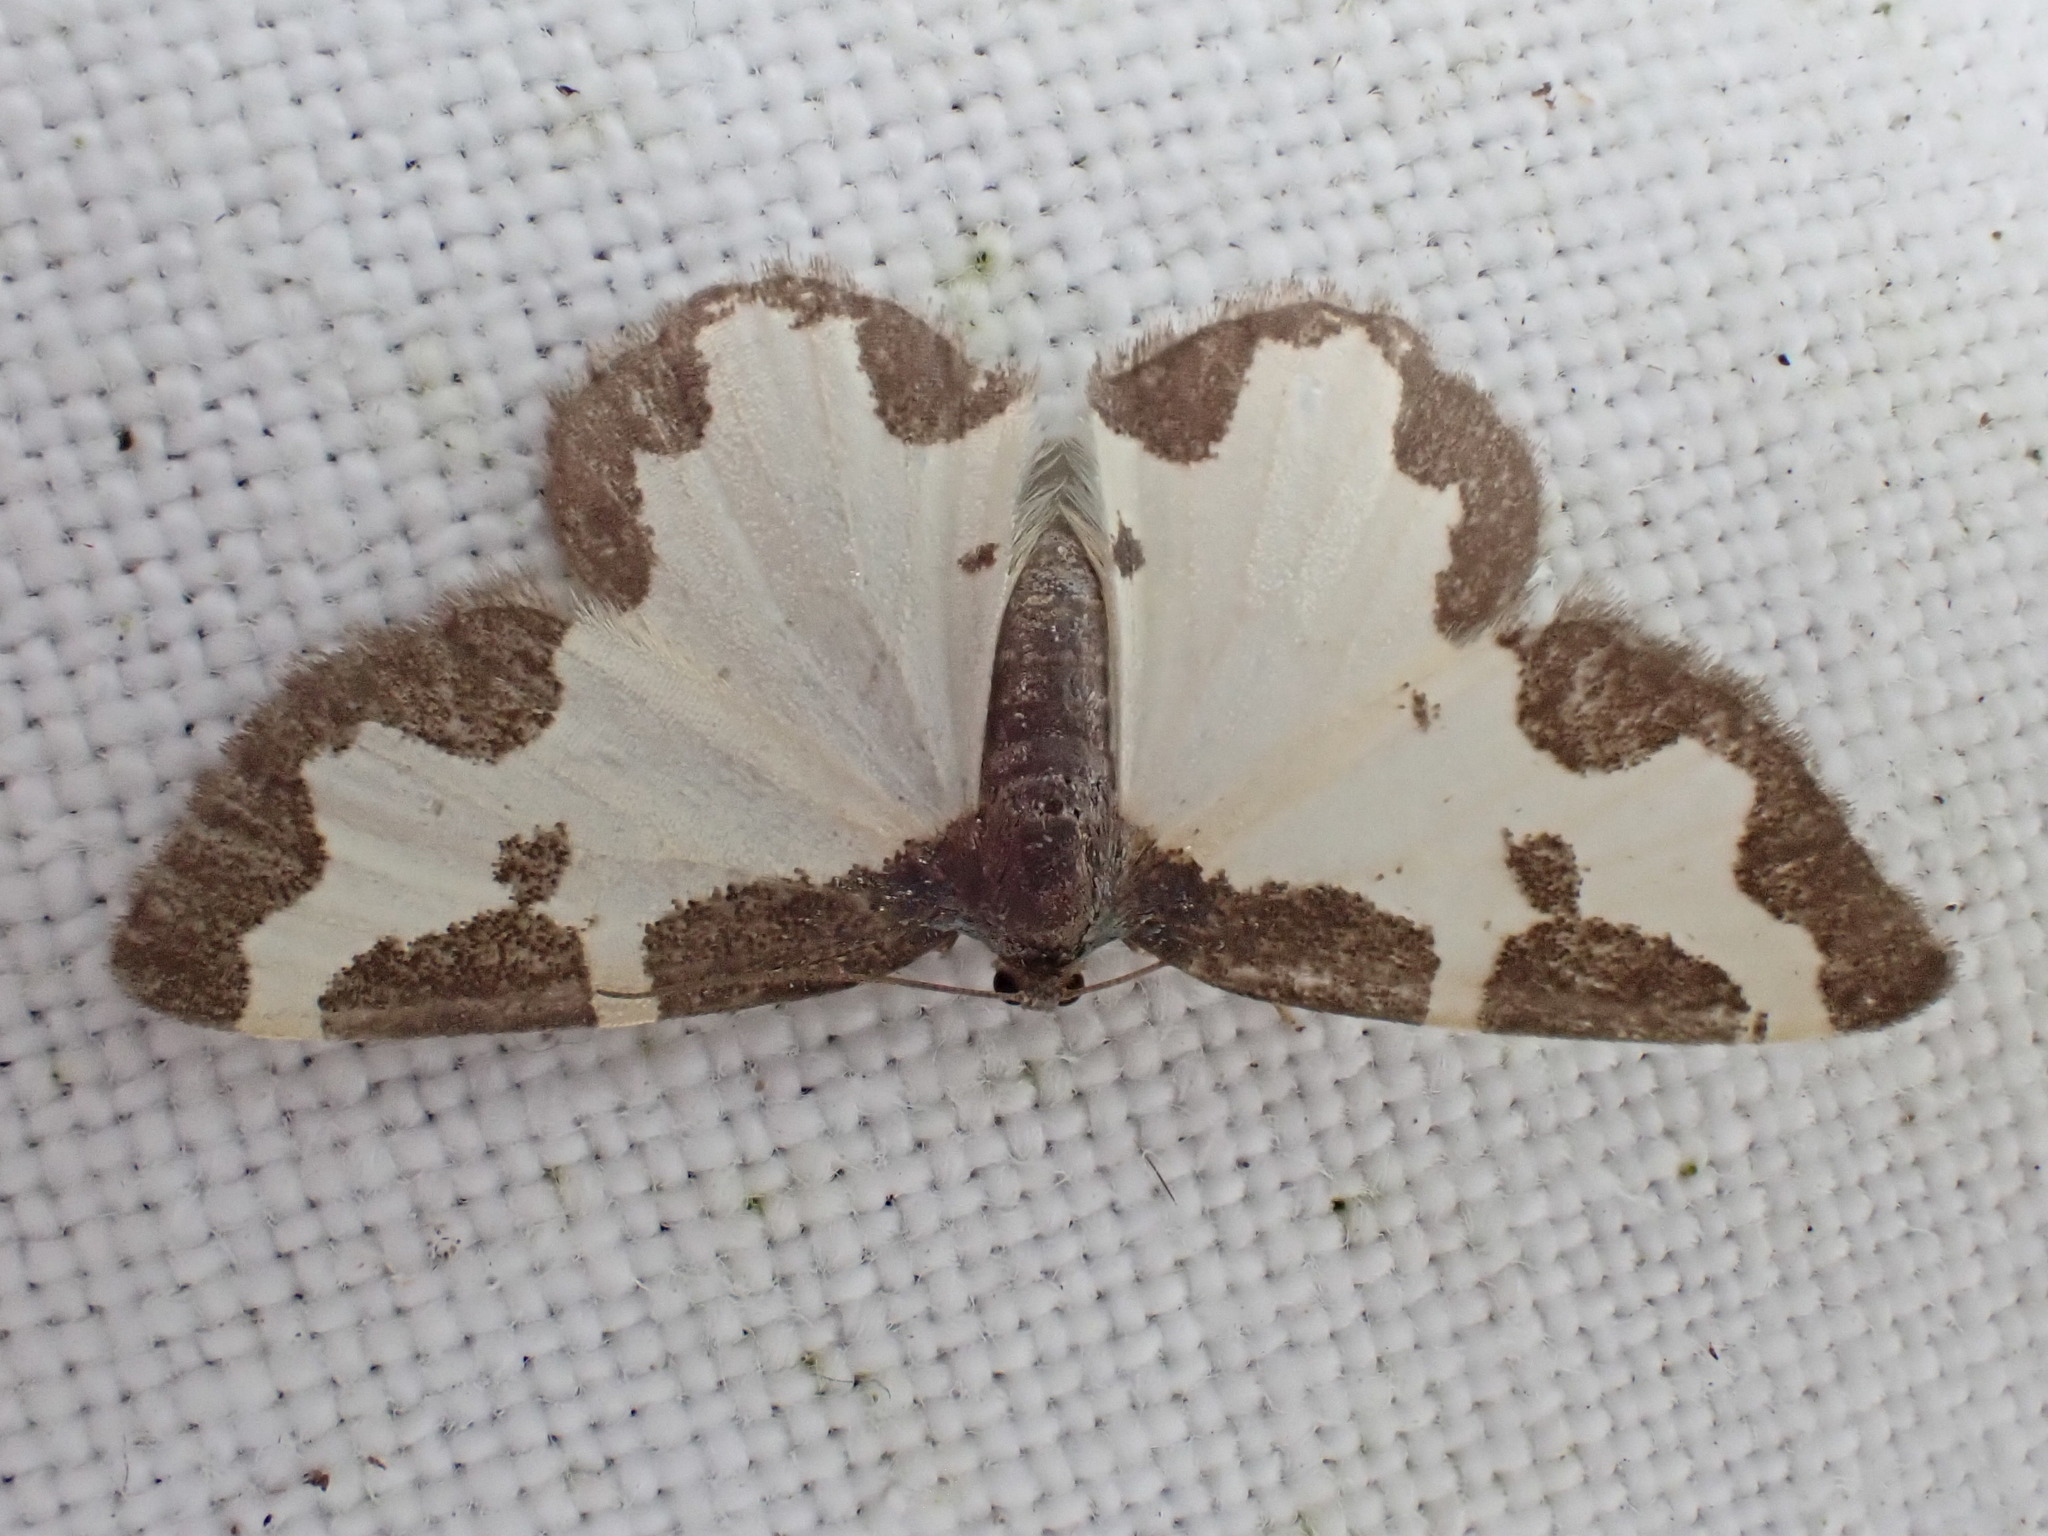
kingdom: Animalia
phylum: Arthropoda
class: Insecta
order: Lepidoptera
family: Geometridae
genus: Lomaspilis
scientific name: Lomaspilis marginata
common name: Clouded border
